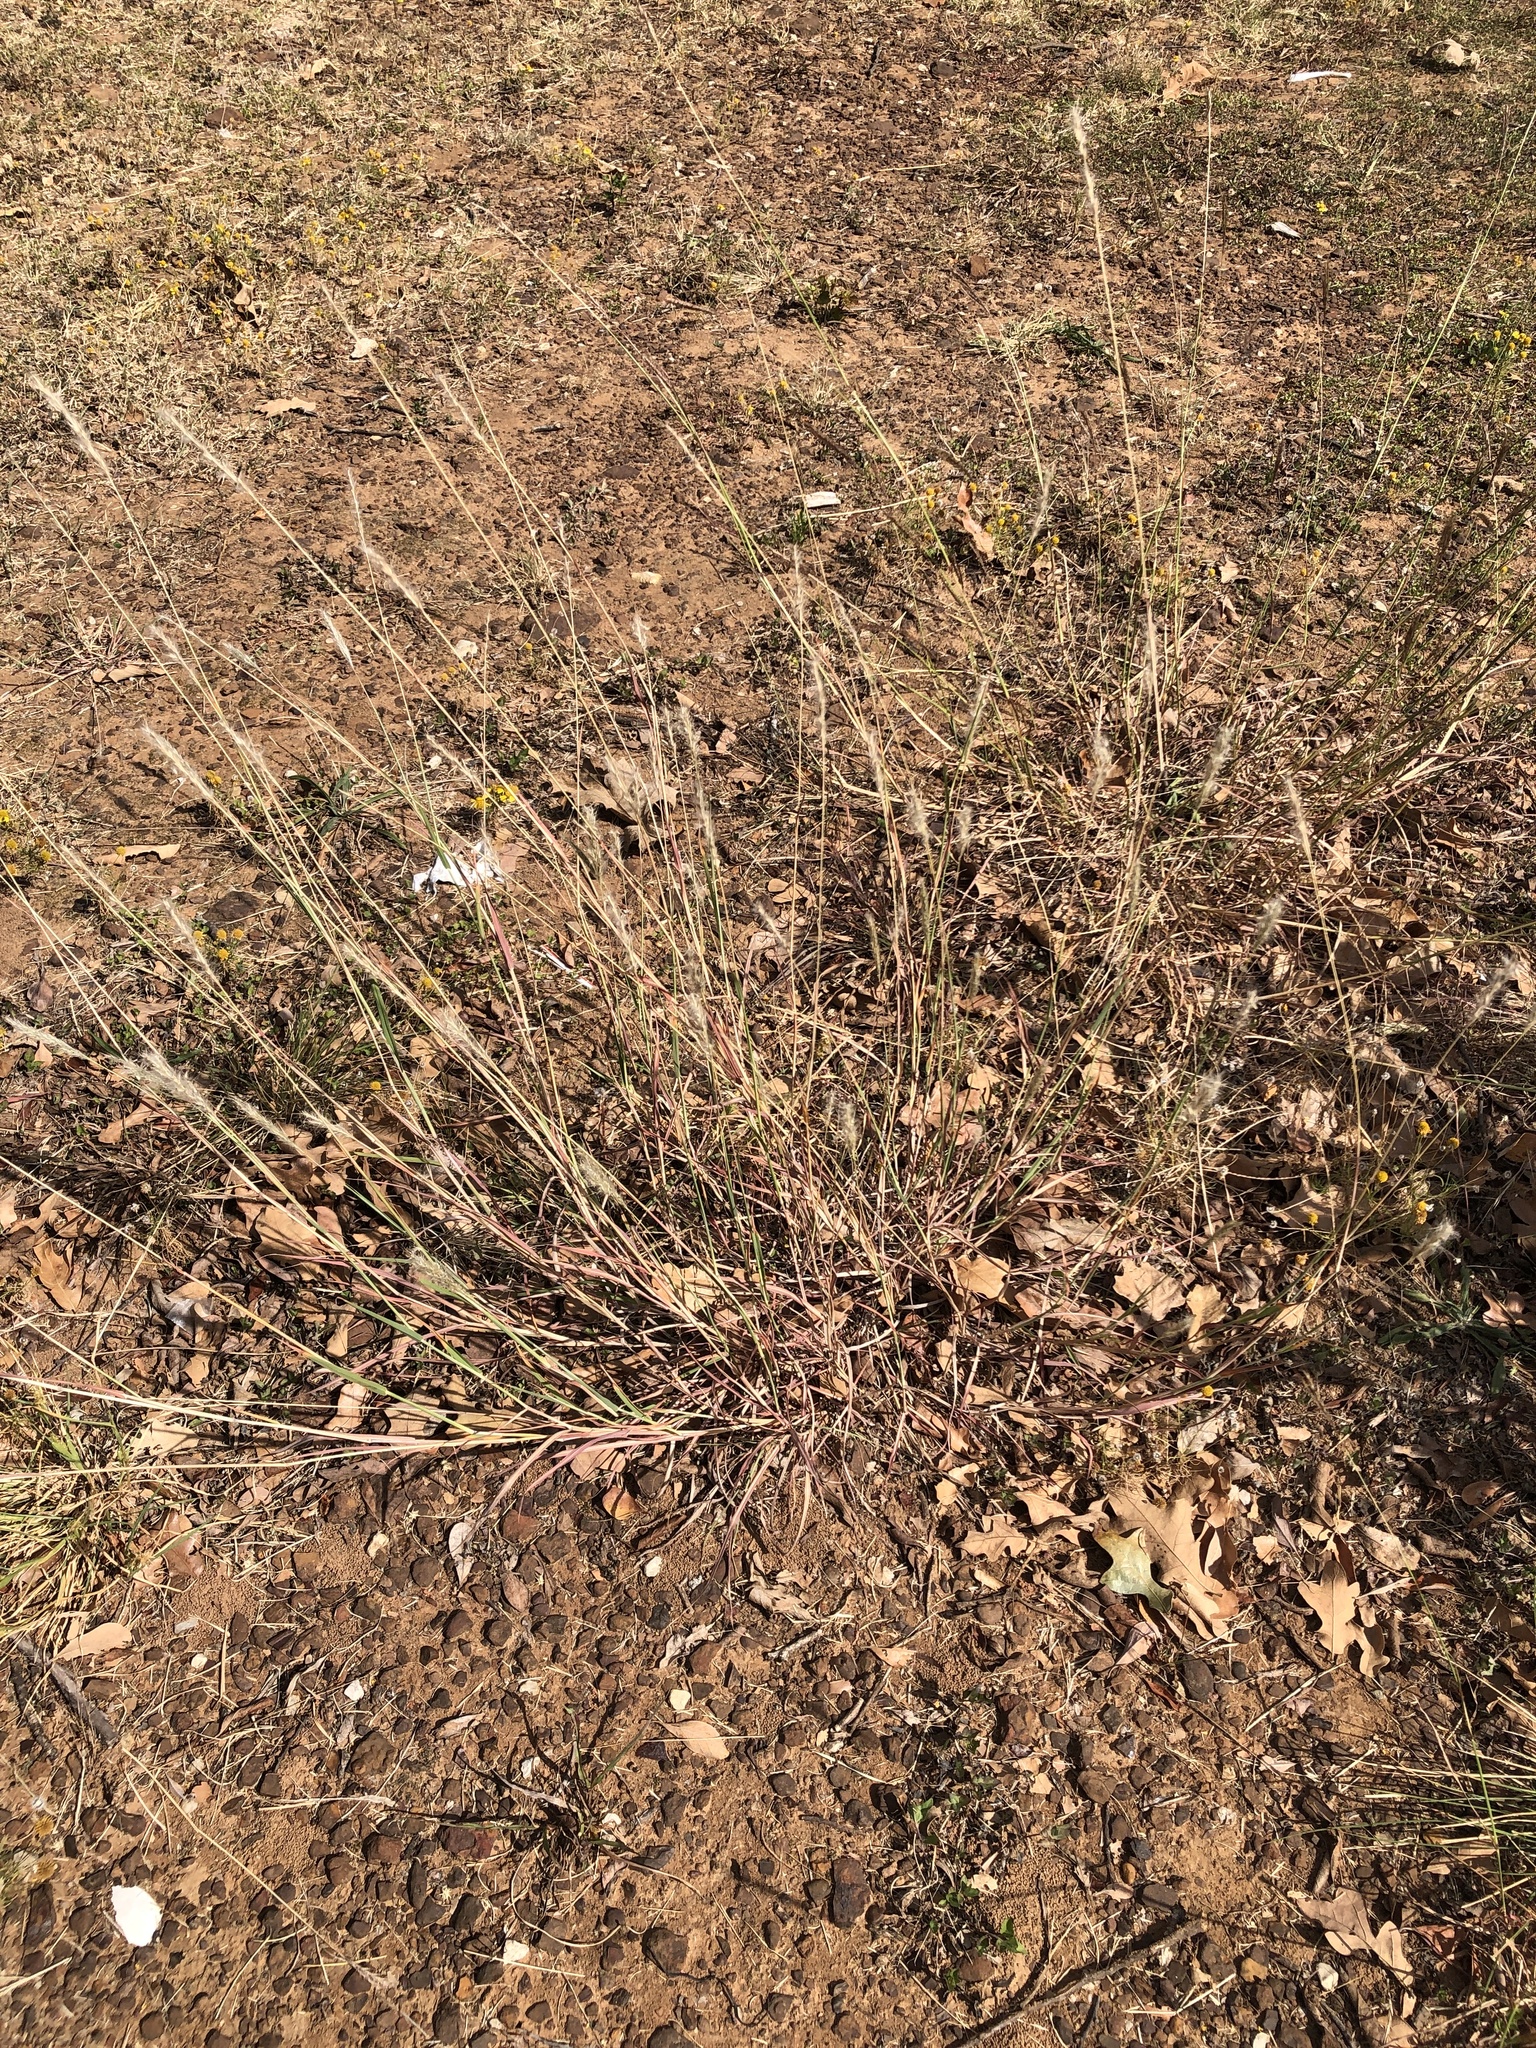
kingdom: Plantae
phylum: Tracheophyta
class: Liliopsida
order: Poales
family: Poaceae
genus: Bothriochloa
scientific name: Bothriochloa torreyana
